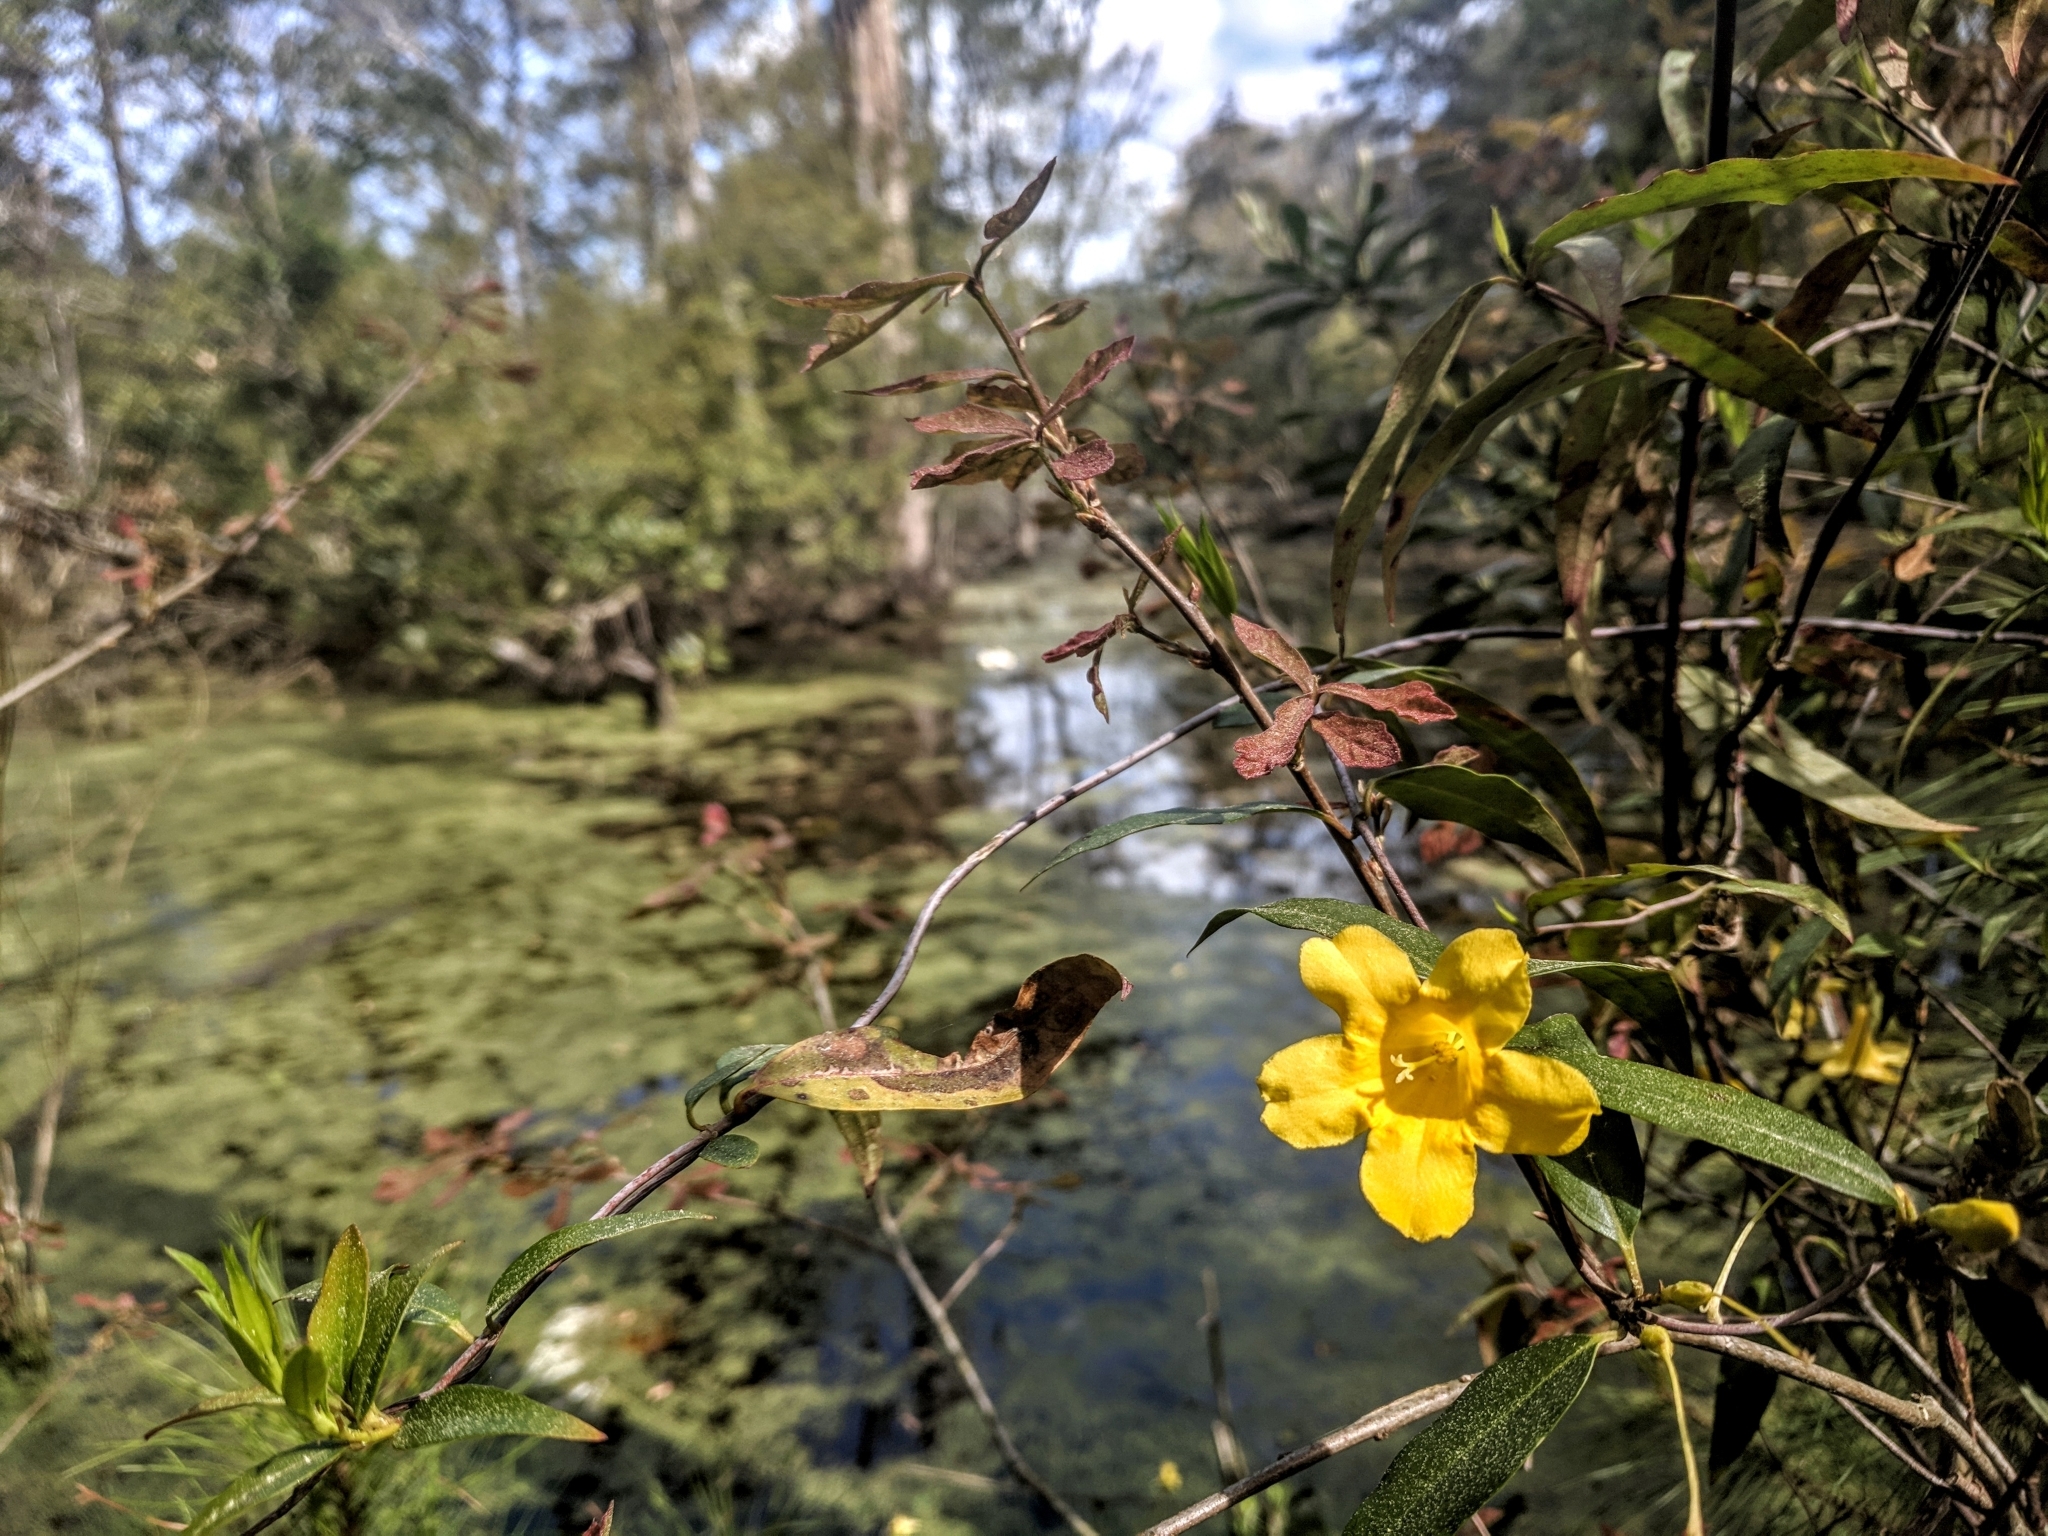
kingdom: Plantae
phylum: Tracheophyta
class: Magnoliopsida
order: Gentianales
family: Gelsemiaceae
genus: Gelsemium
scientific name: Gelsemium sempervirens
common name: Carolina-jasmine
